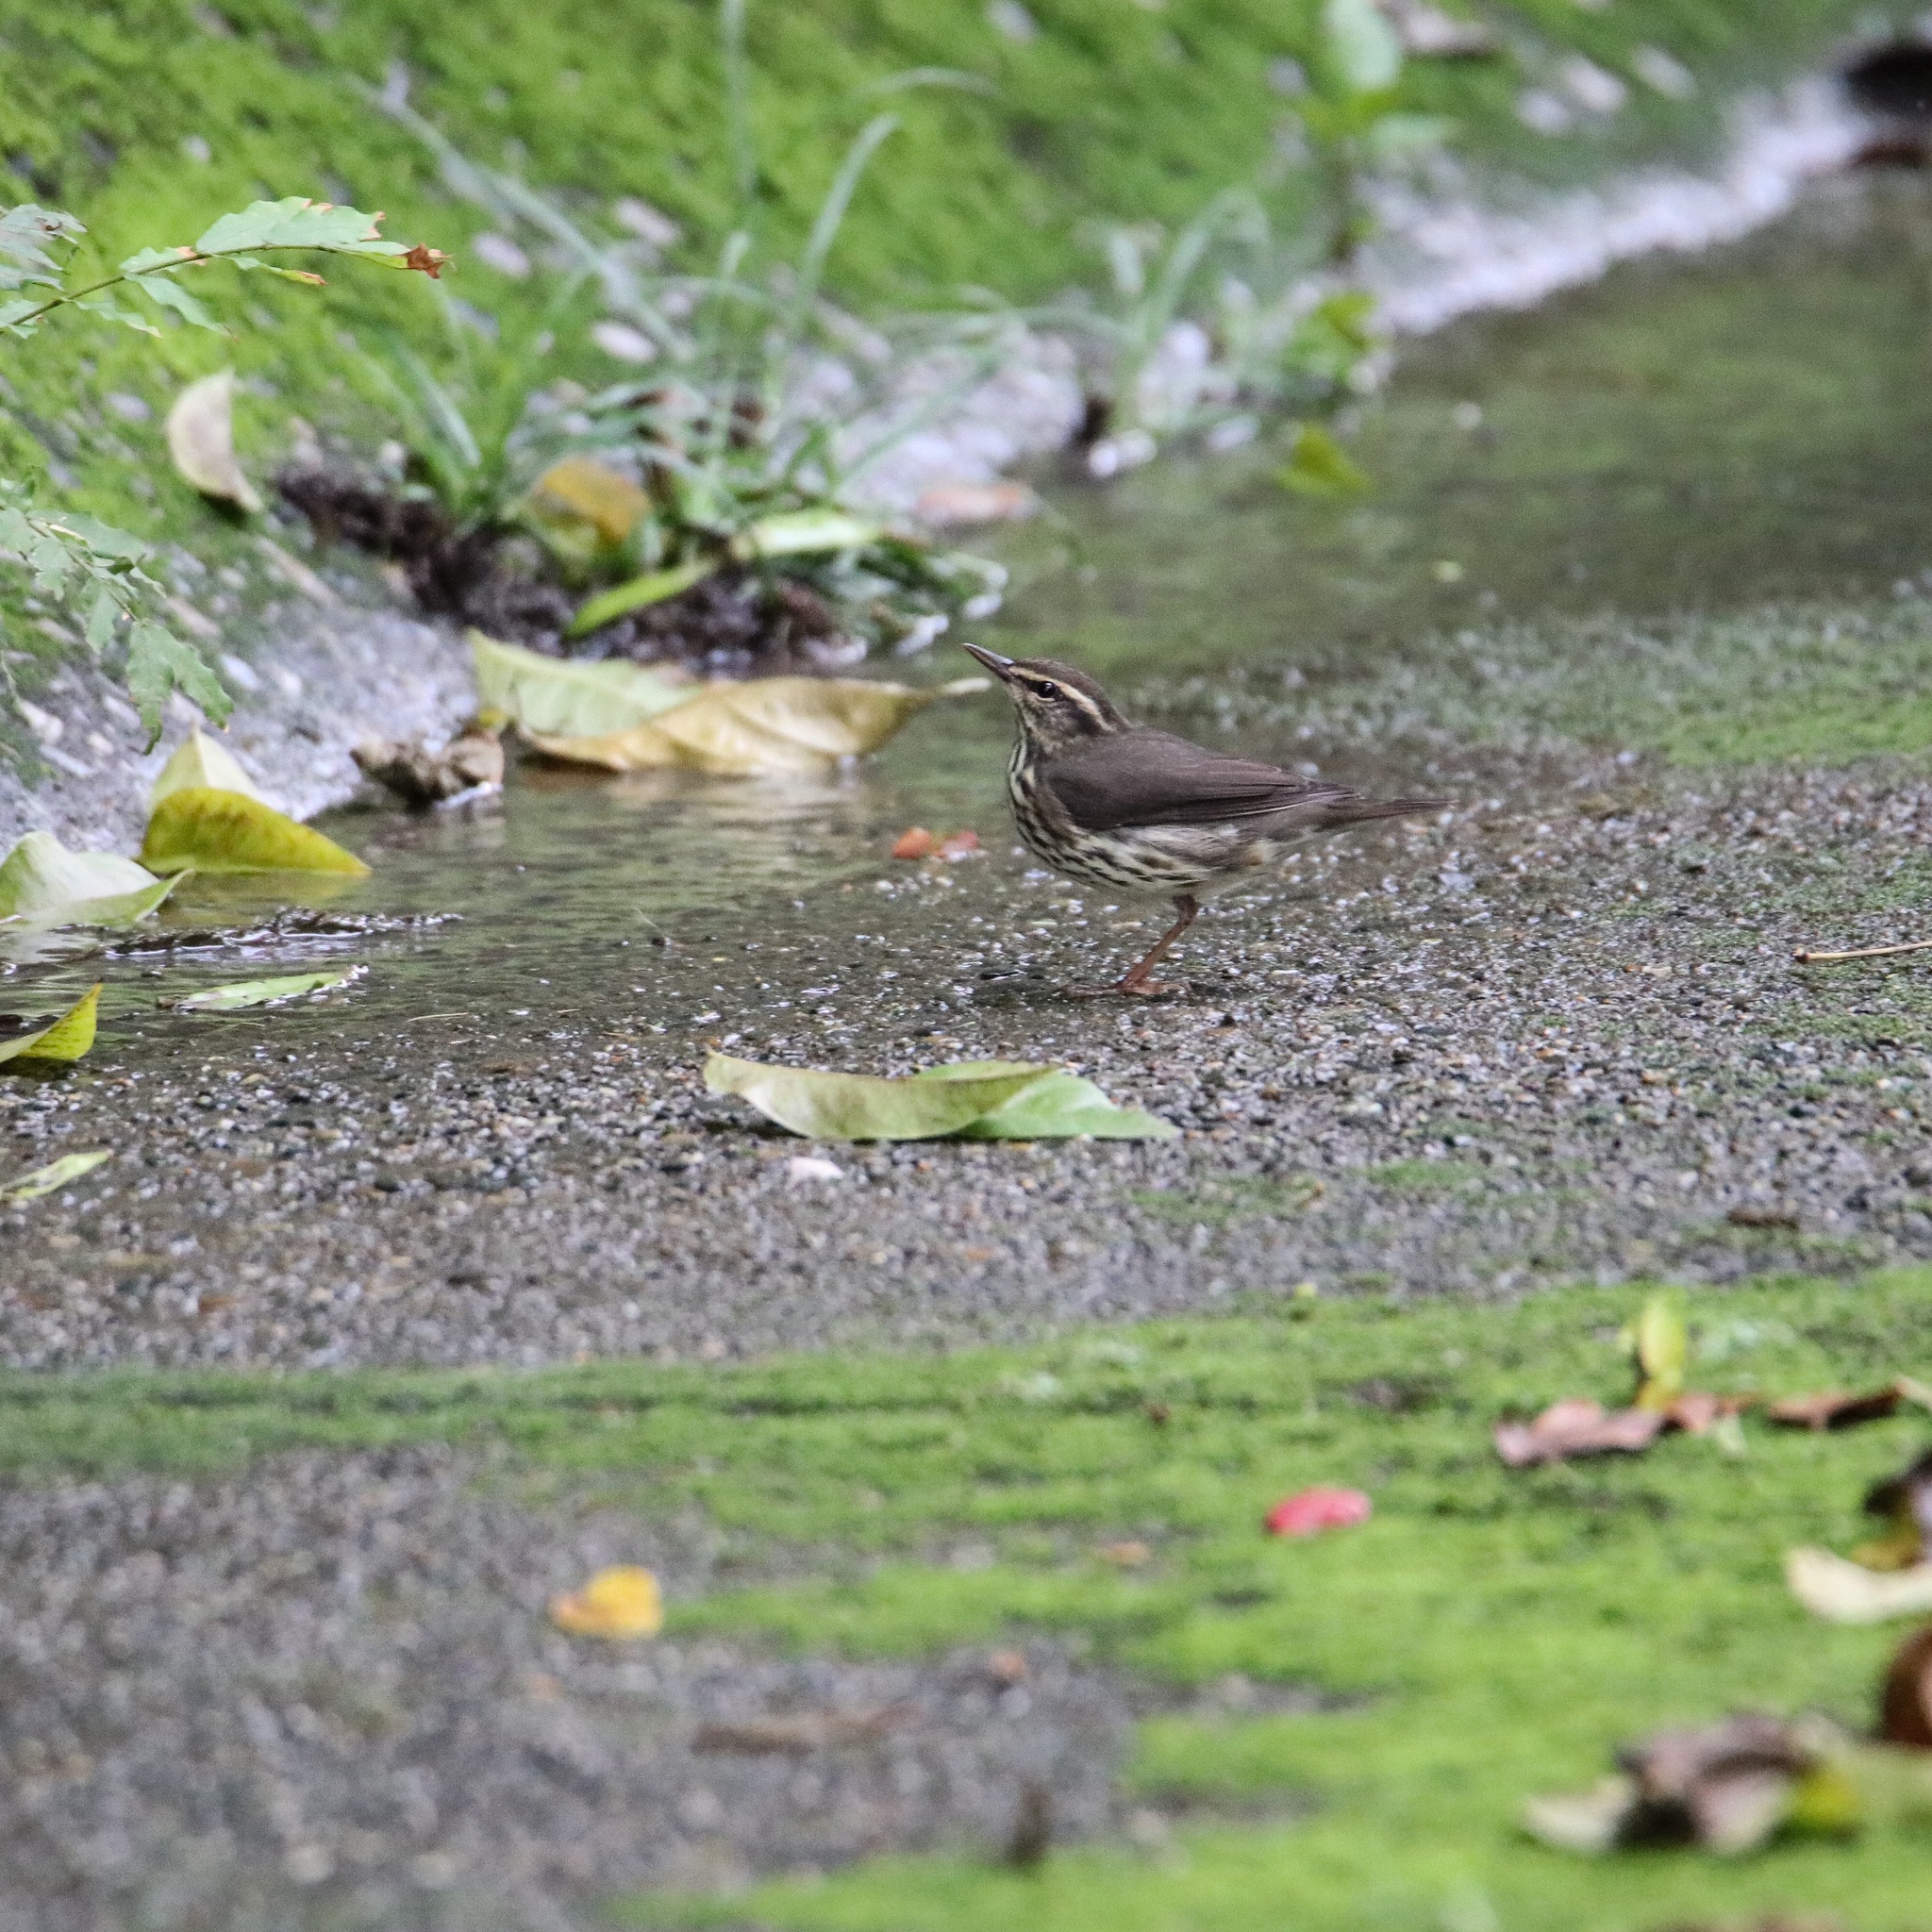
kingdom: Animalia
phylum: Chordata
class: Aves
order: Passeriformes
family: Parulidae
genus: Parkesia
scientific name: Parkesia motacilla
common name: Louisiana waterthrush
